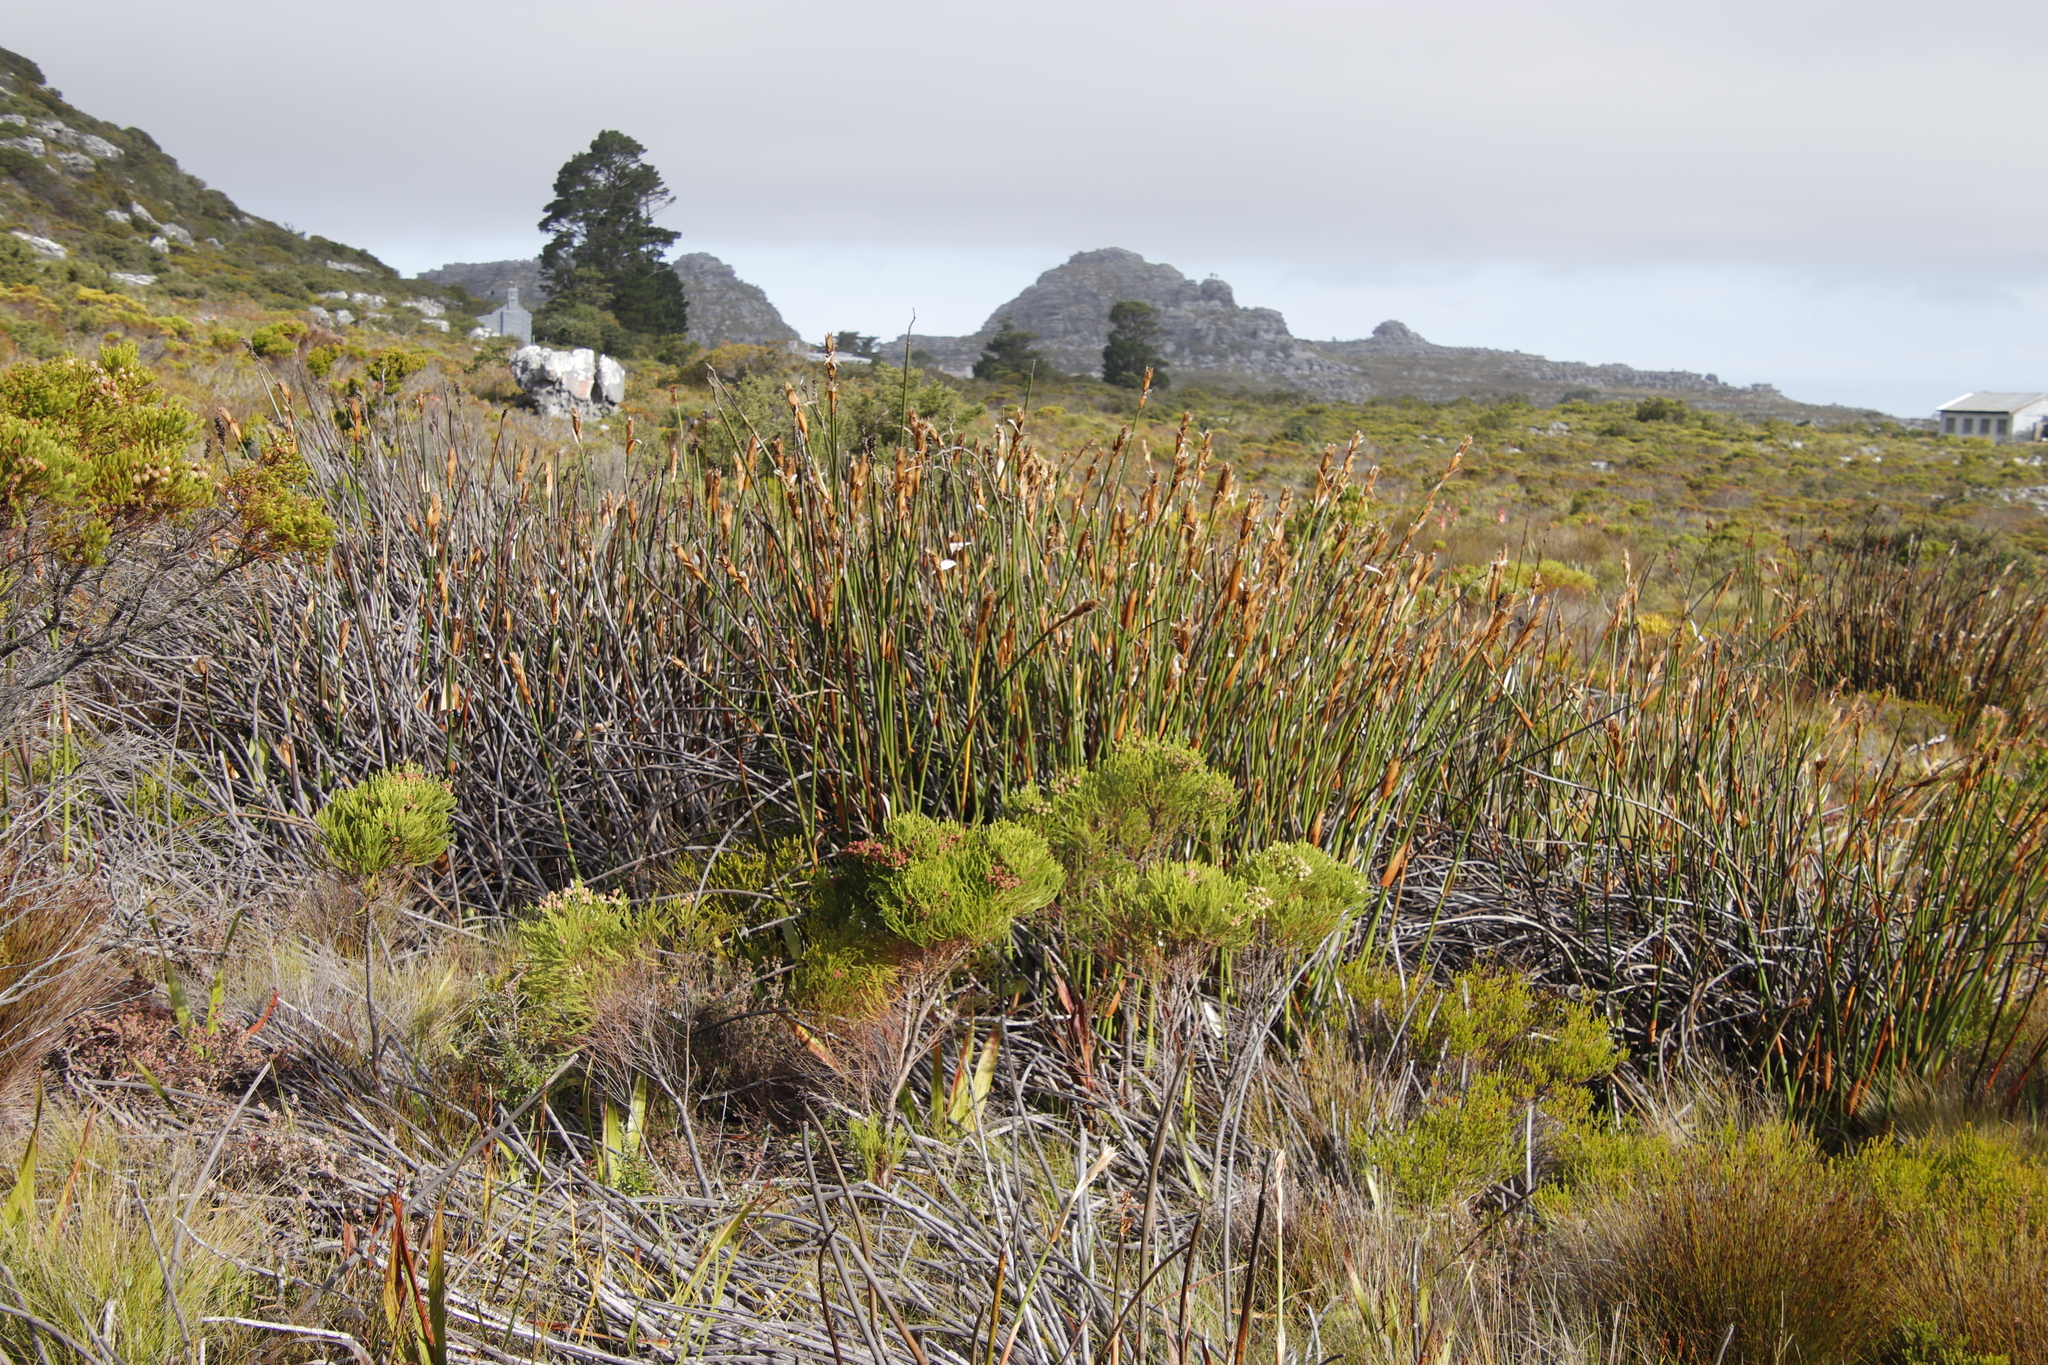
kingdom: Plantae
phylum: Tracheophyta
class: Liliopsida
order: Poales
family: Restionaceae
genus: Elegia
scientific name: Elegia mucronata
